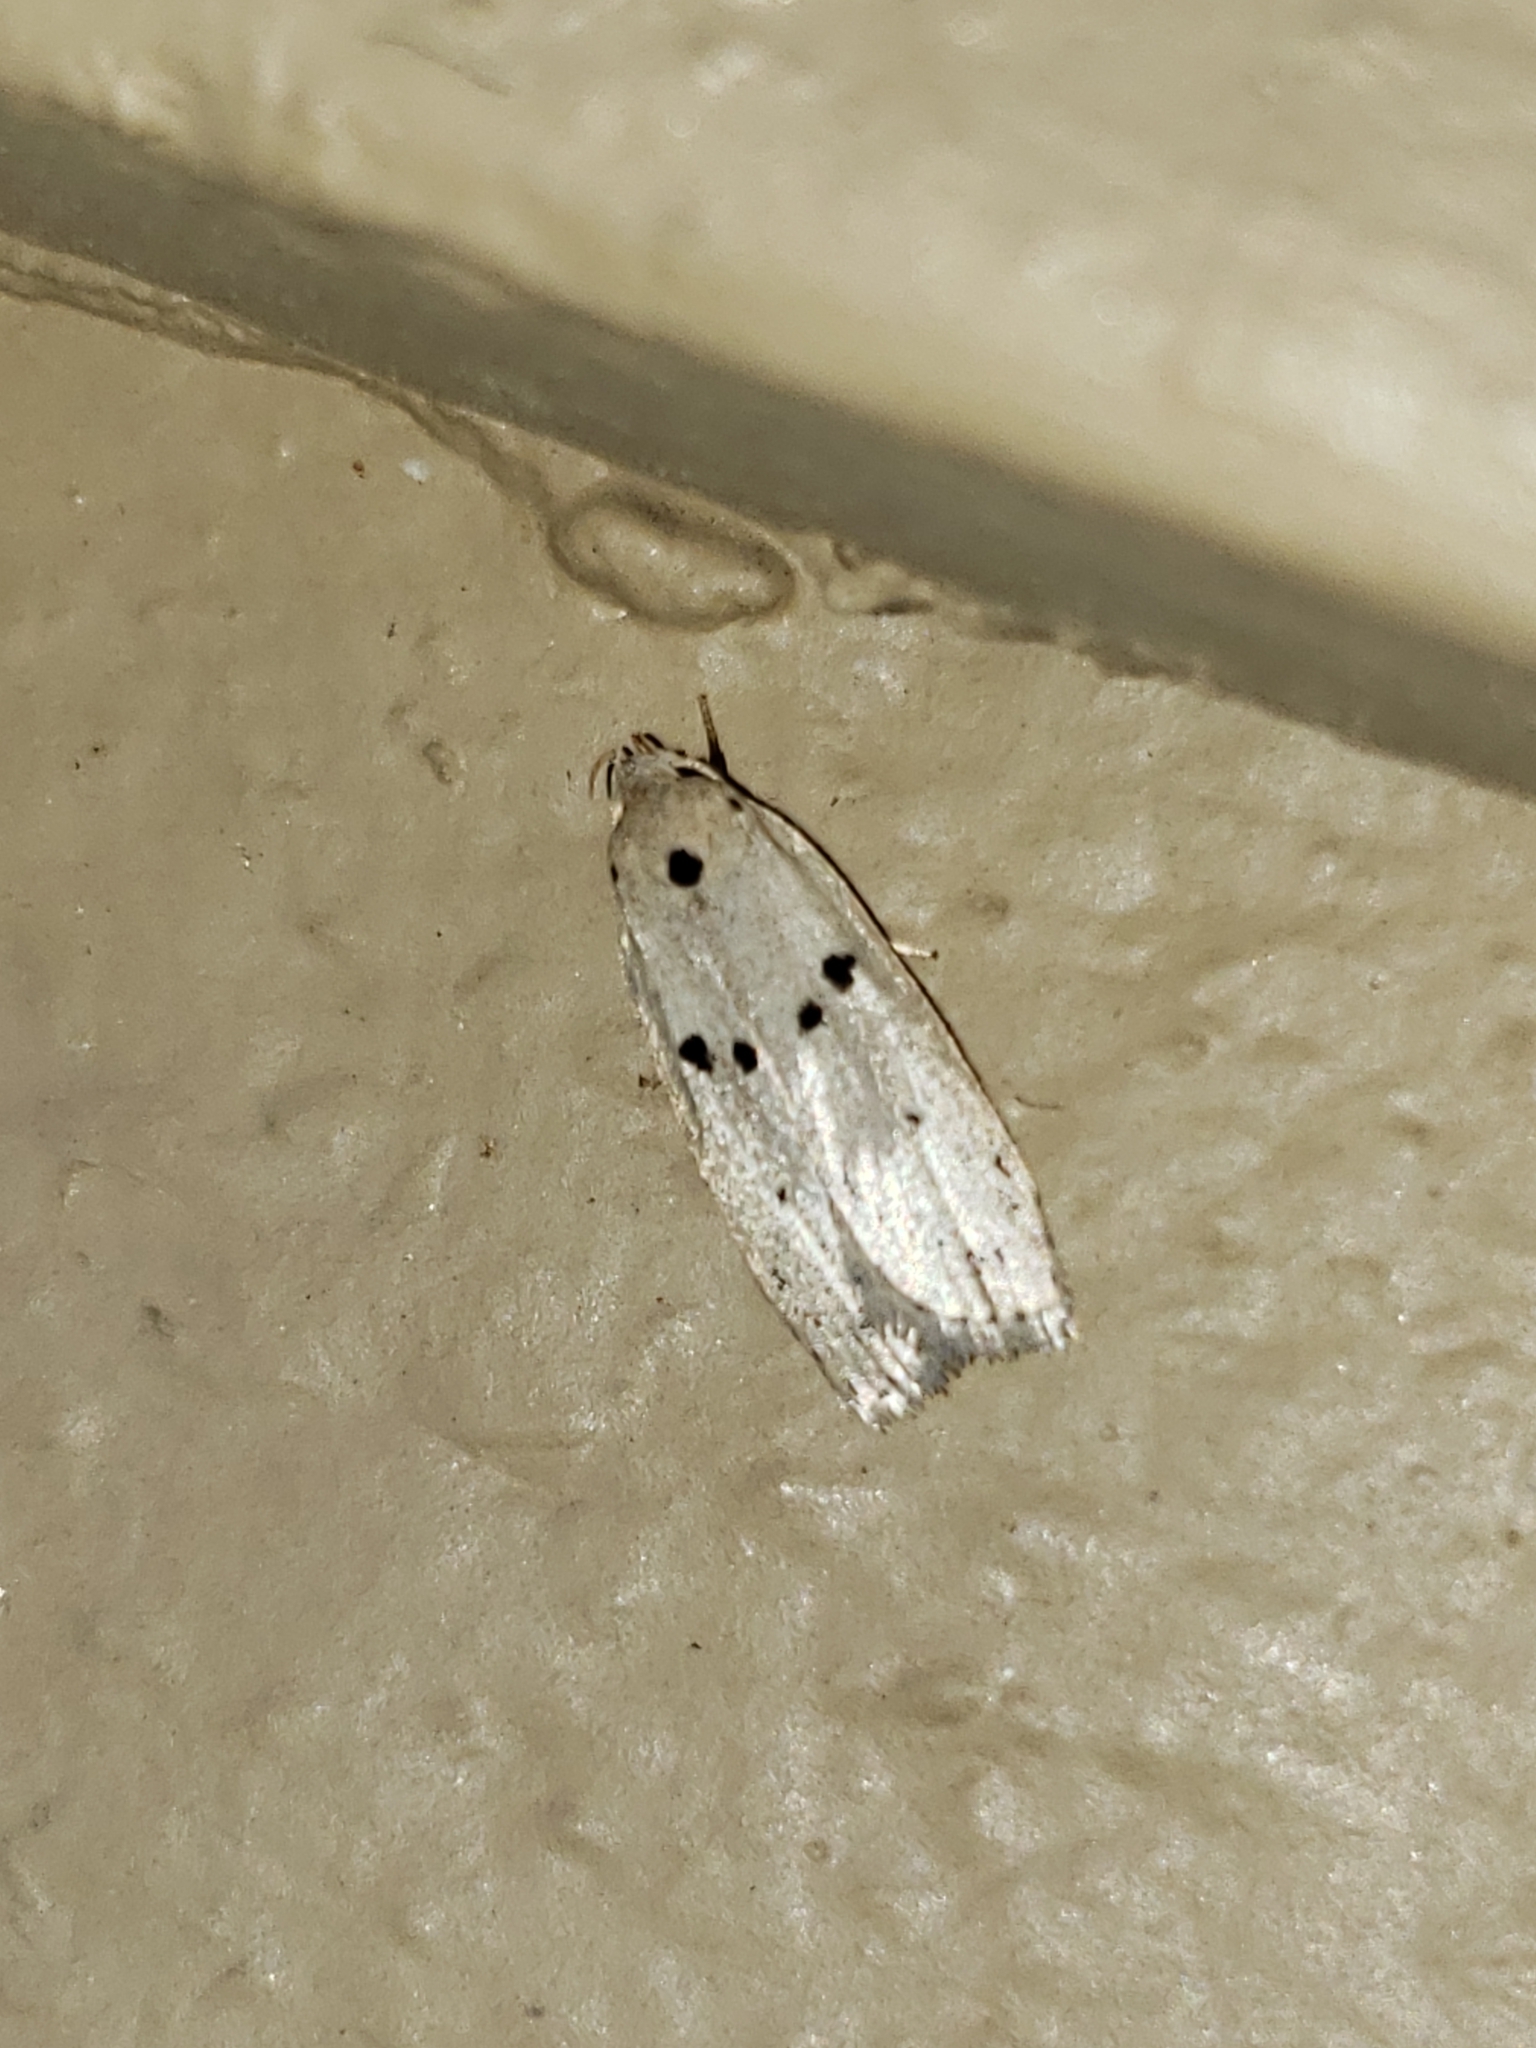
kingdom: Animalia
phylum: Arthropoda
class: Insecta
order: Lepidoptera
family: Peleopodidae
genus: Scythropiodes
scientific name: Scythropiodes issikii
